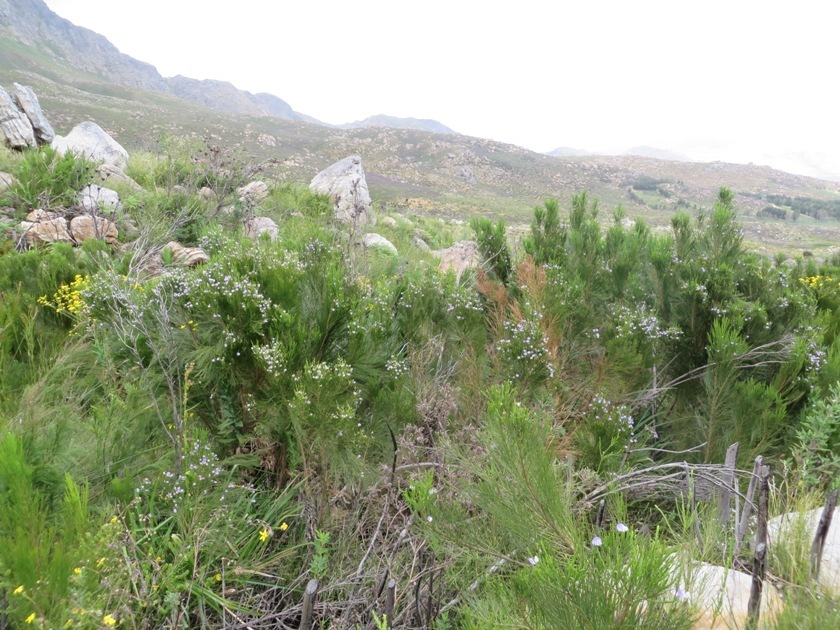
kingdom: Plantae
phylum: Tracheophyta
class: Magnoliopsida
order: Fabales
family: Fabaceae
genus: Psoralea
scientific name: Psoralea aphylla
